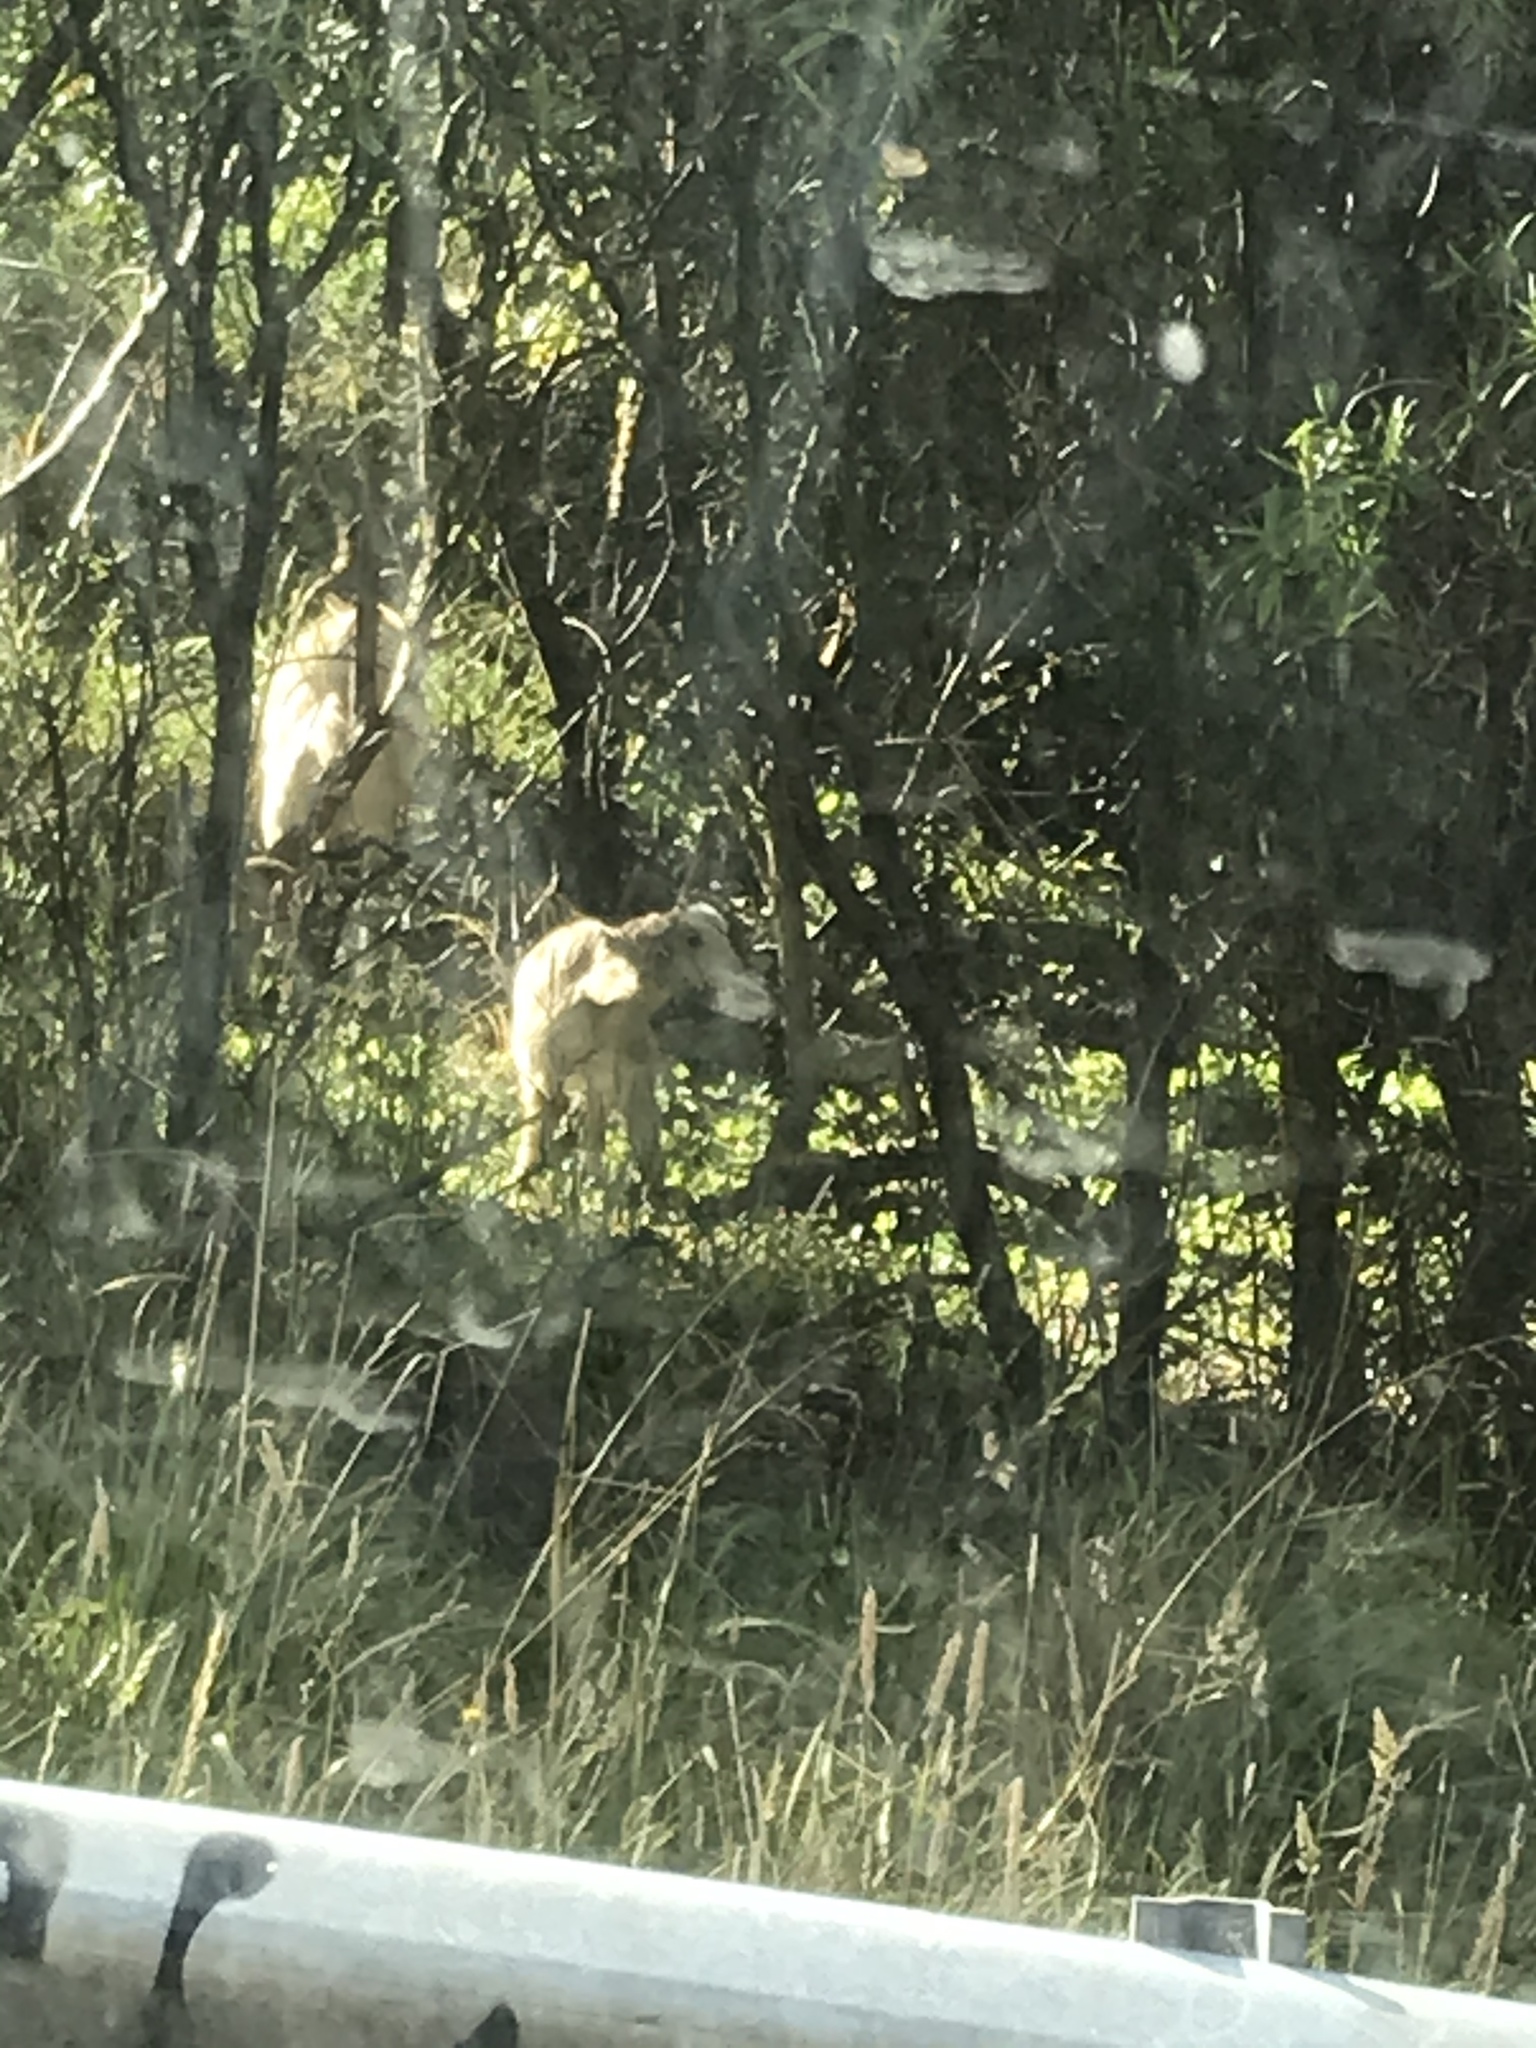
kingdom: Animalia
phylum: Chordata
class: Mammalia
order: Artiodactyla
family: Bovidae
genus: Capra
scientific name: Capra hircus
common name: Domestic goat
